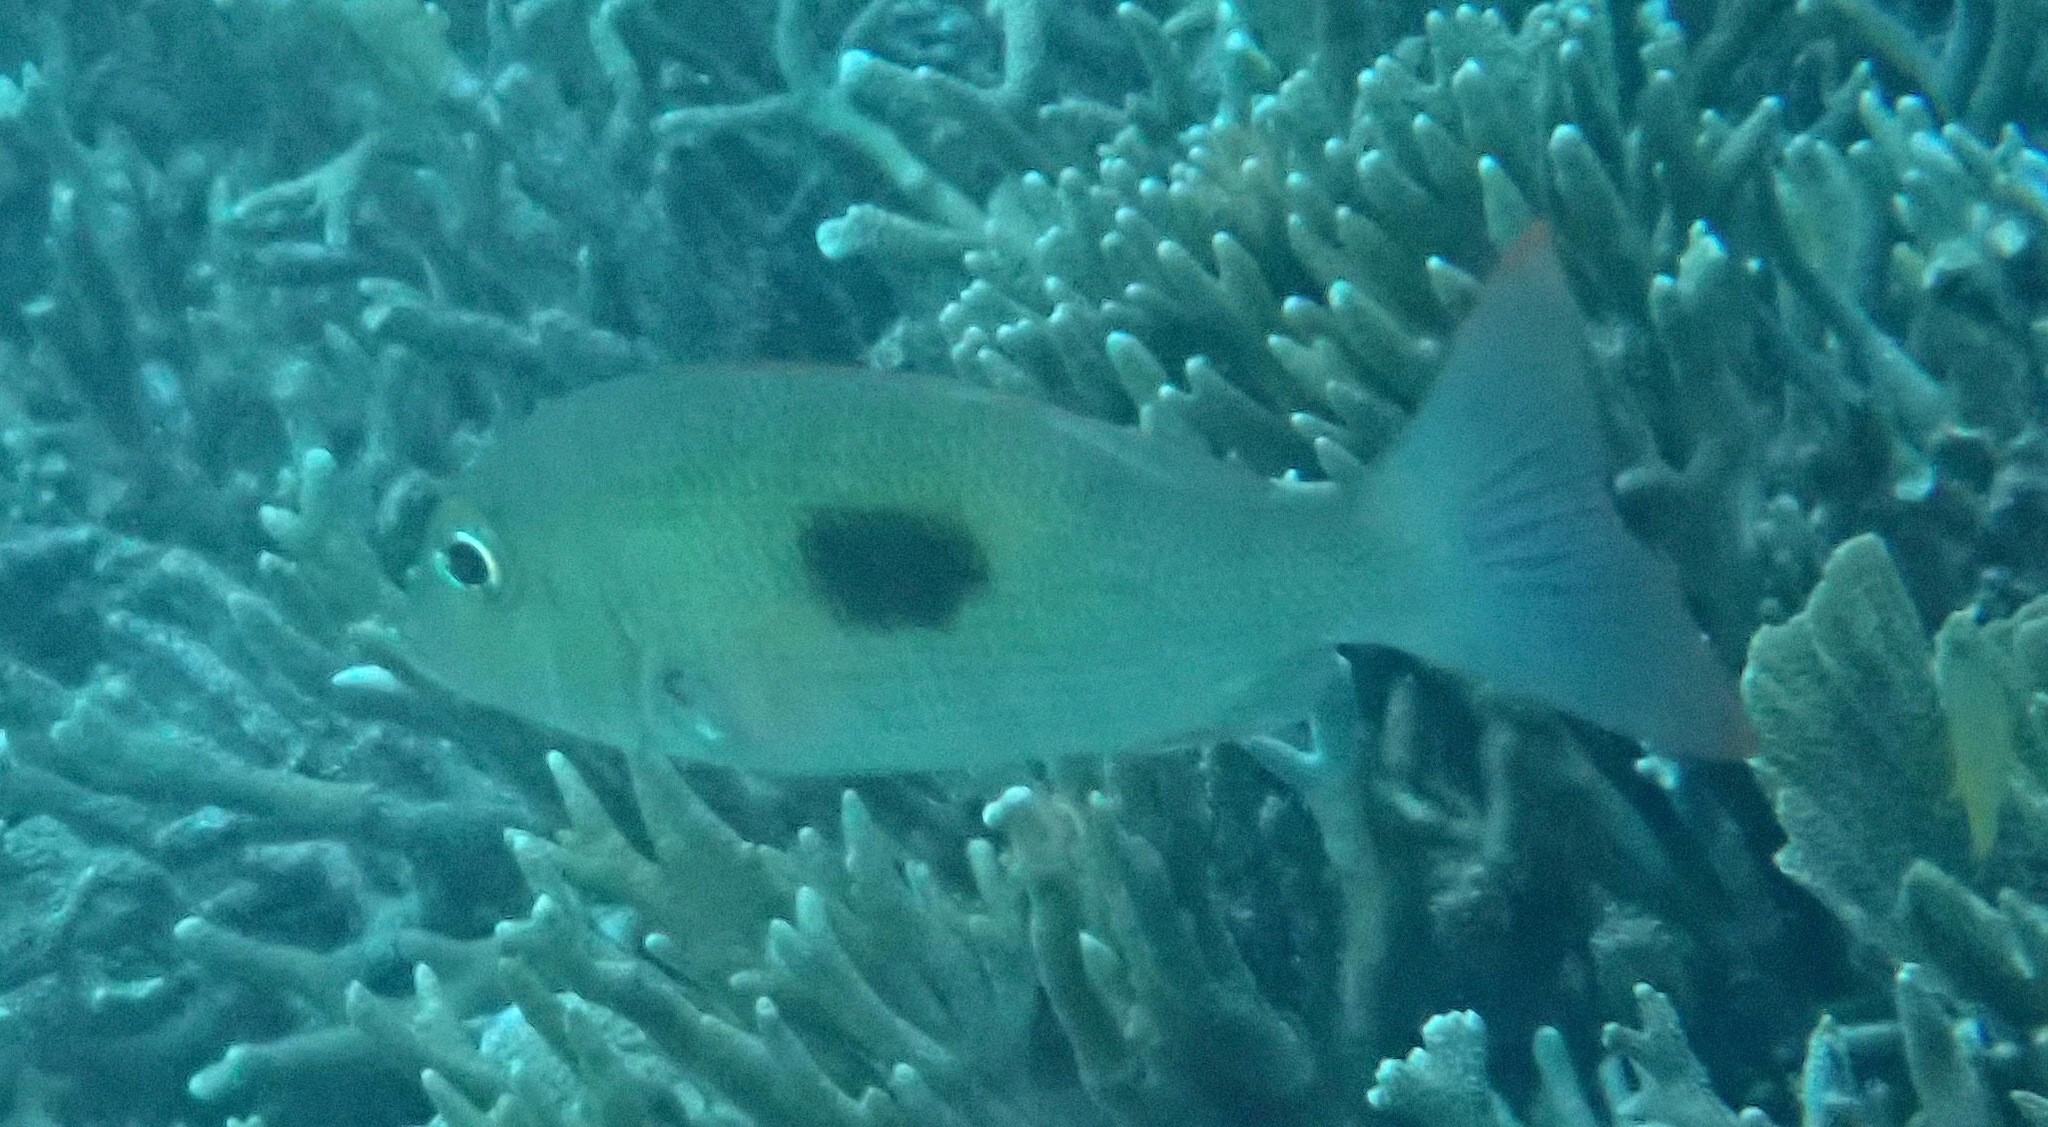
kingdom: Animalia
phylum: Chordata
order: Perciformes
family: Lethrinidae
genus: Lethrinus
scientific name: Lethrinus harak
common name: Blackspot emperor
